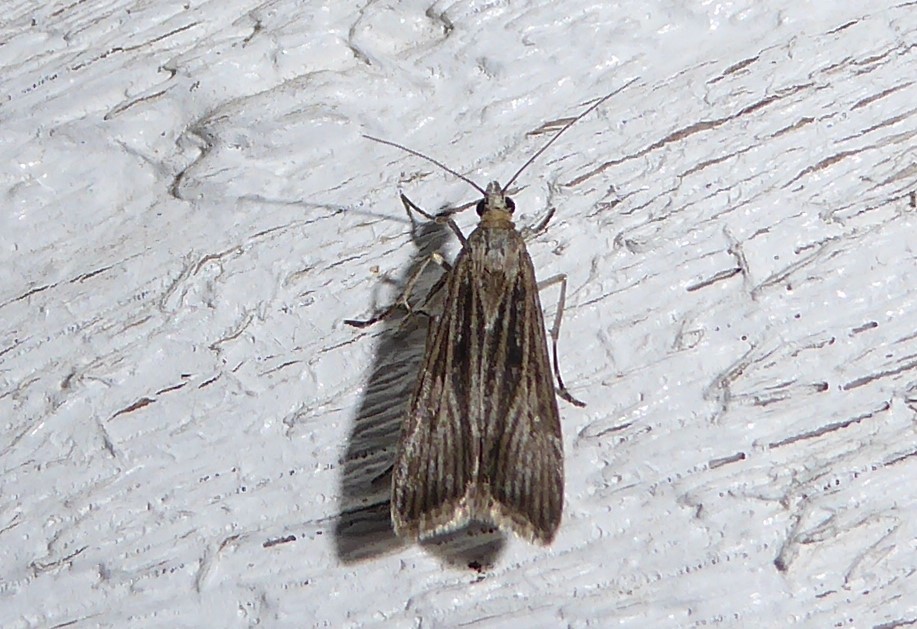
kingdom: Animalia
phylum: Arthropoda
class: Insecta
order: Lepidoptera
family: Crambidae
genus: Eudonia
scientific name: Eudonia atmogramma
